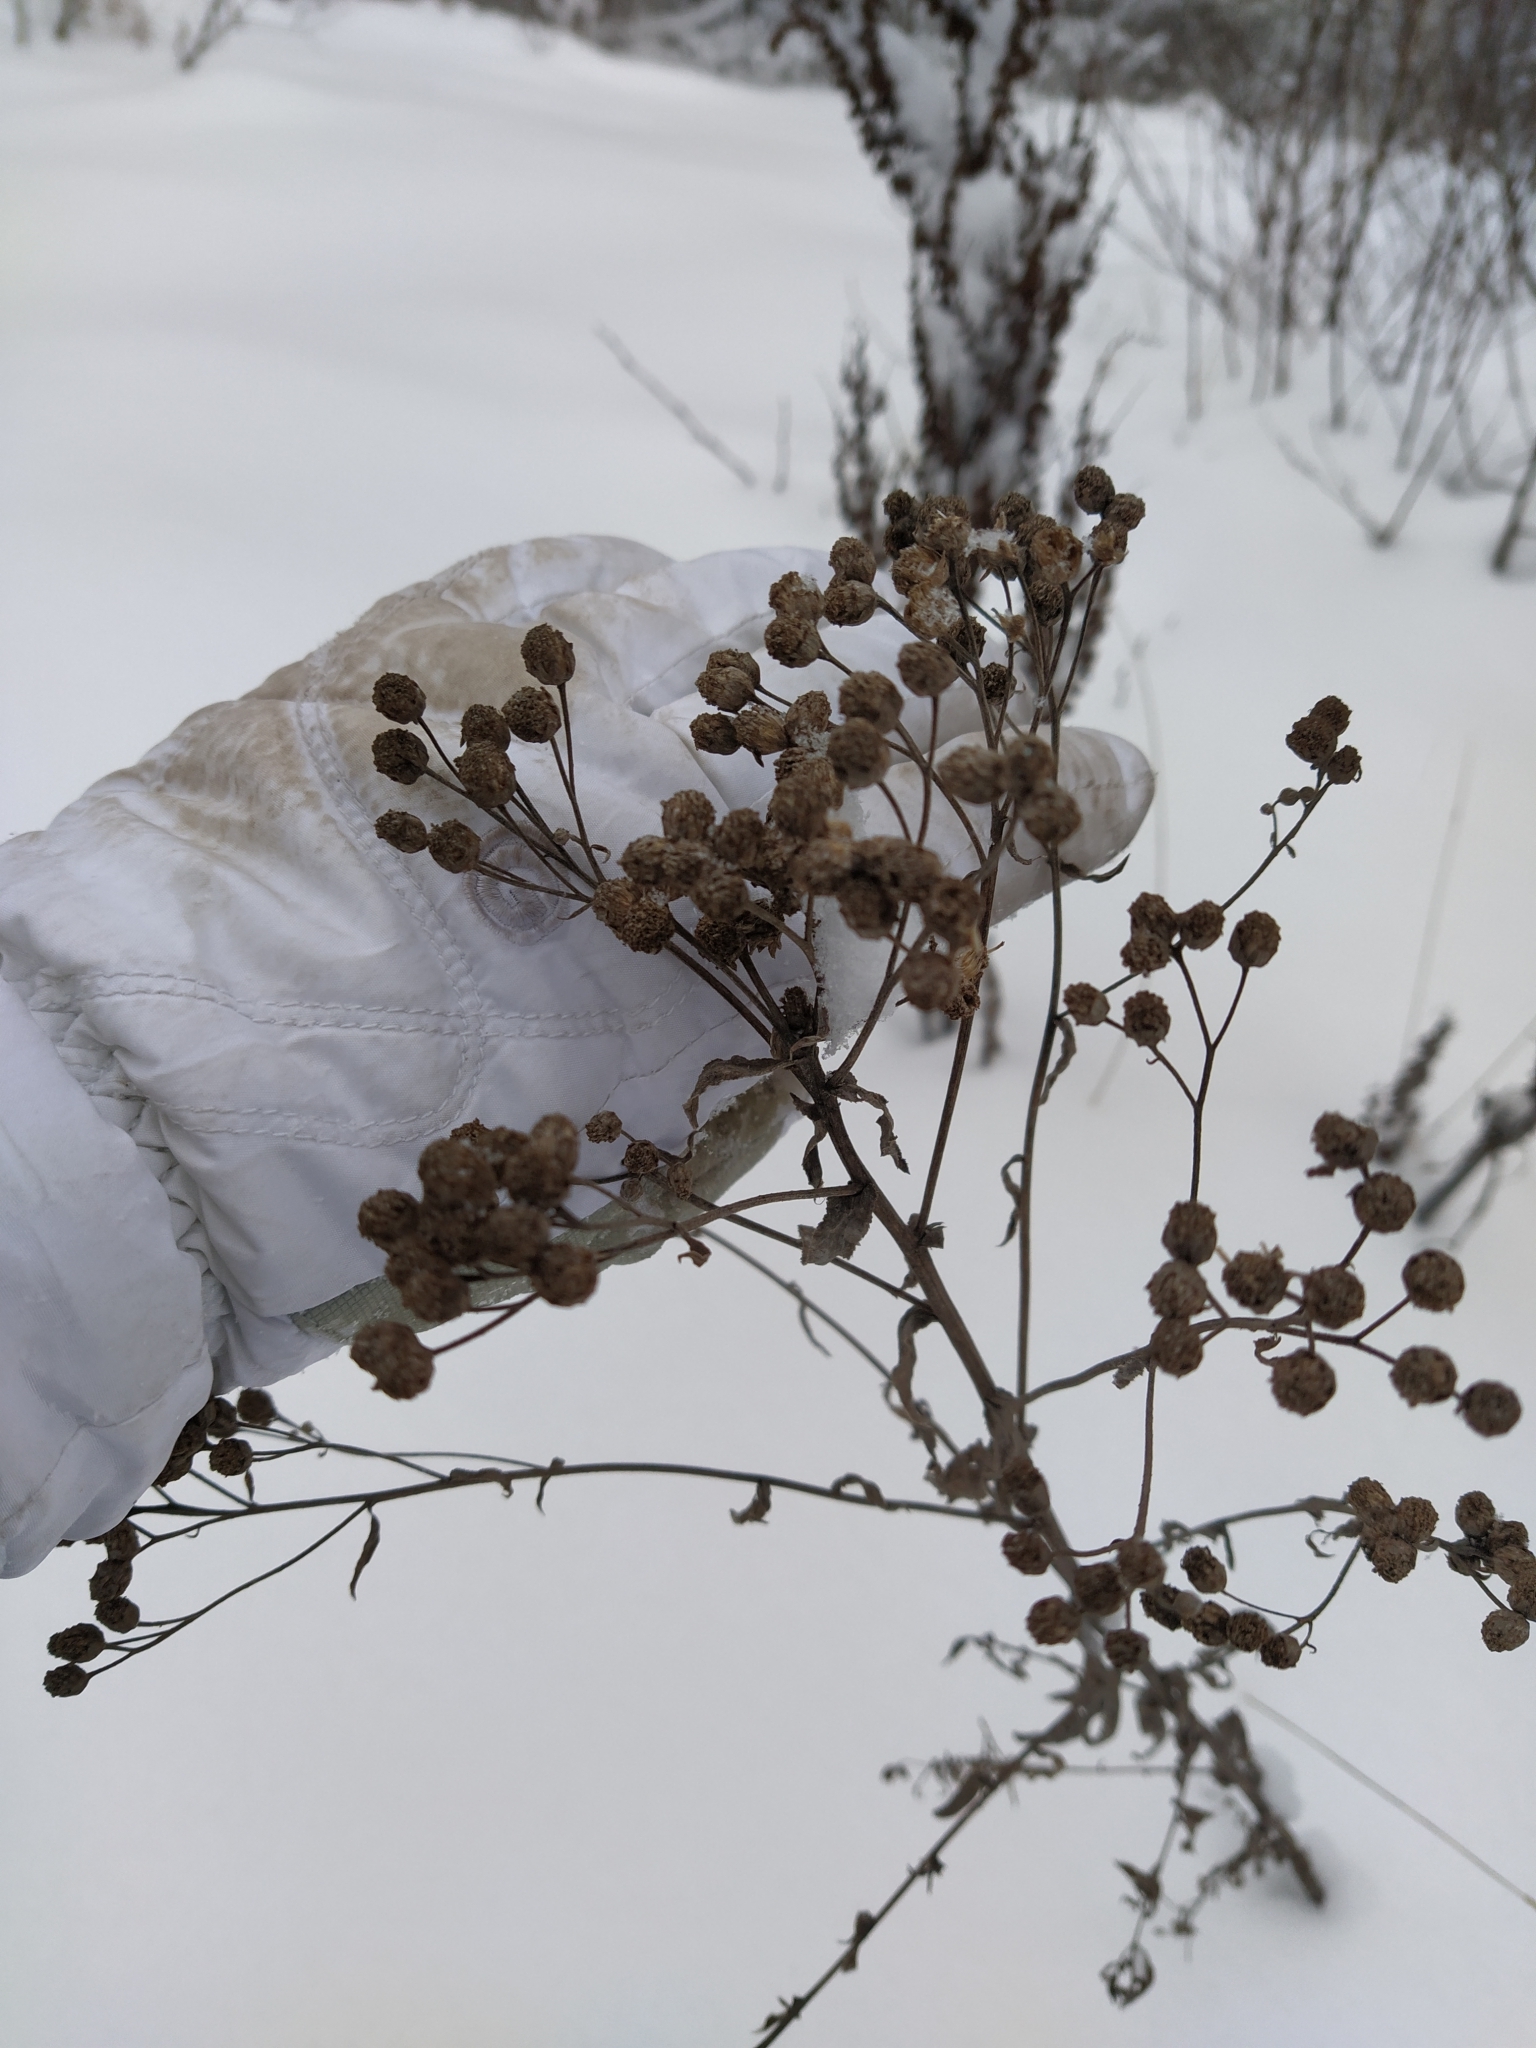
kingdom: Plantae
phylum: Tracheophyta
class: Magnoliopsida
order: Asterales
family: Asteraceae
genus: Tanacetum
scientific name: Tanacetum vulgare
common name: Common tansy
